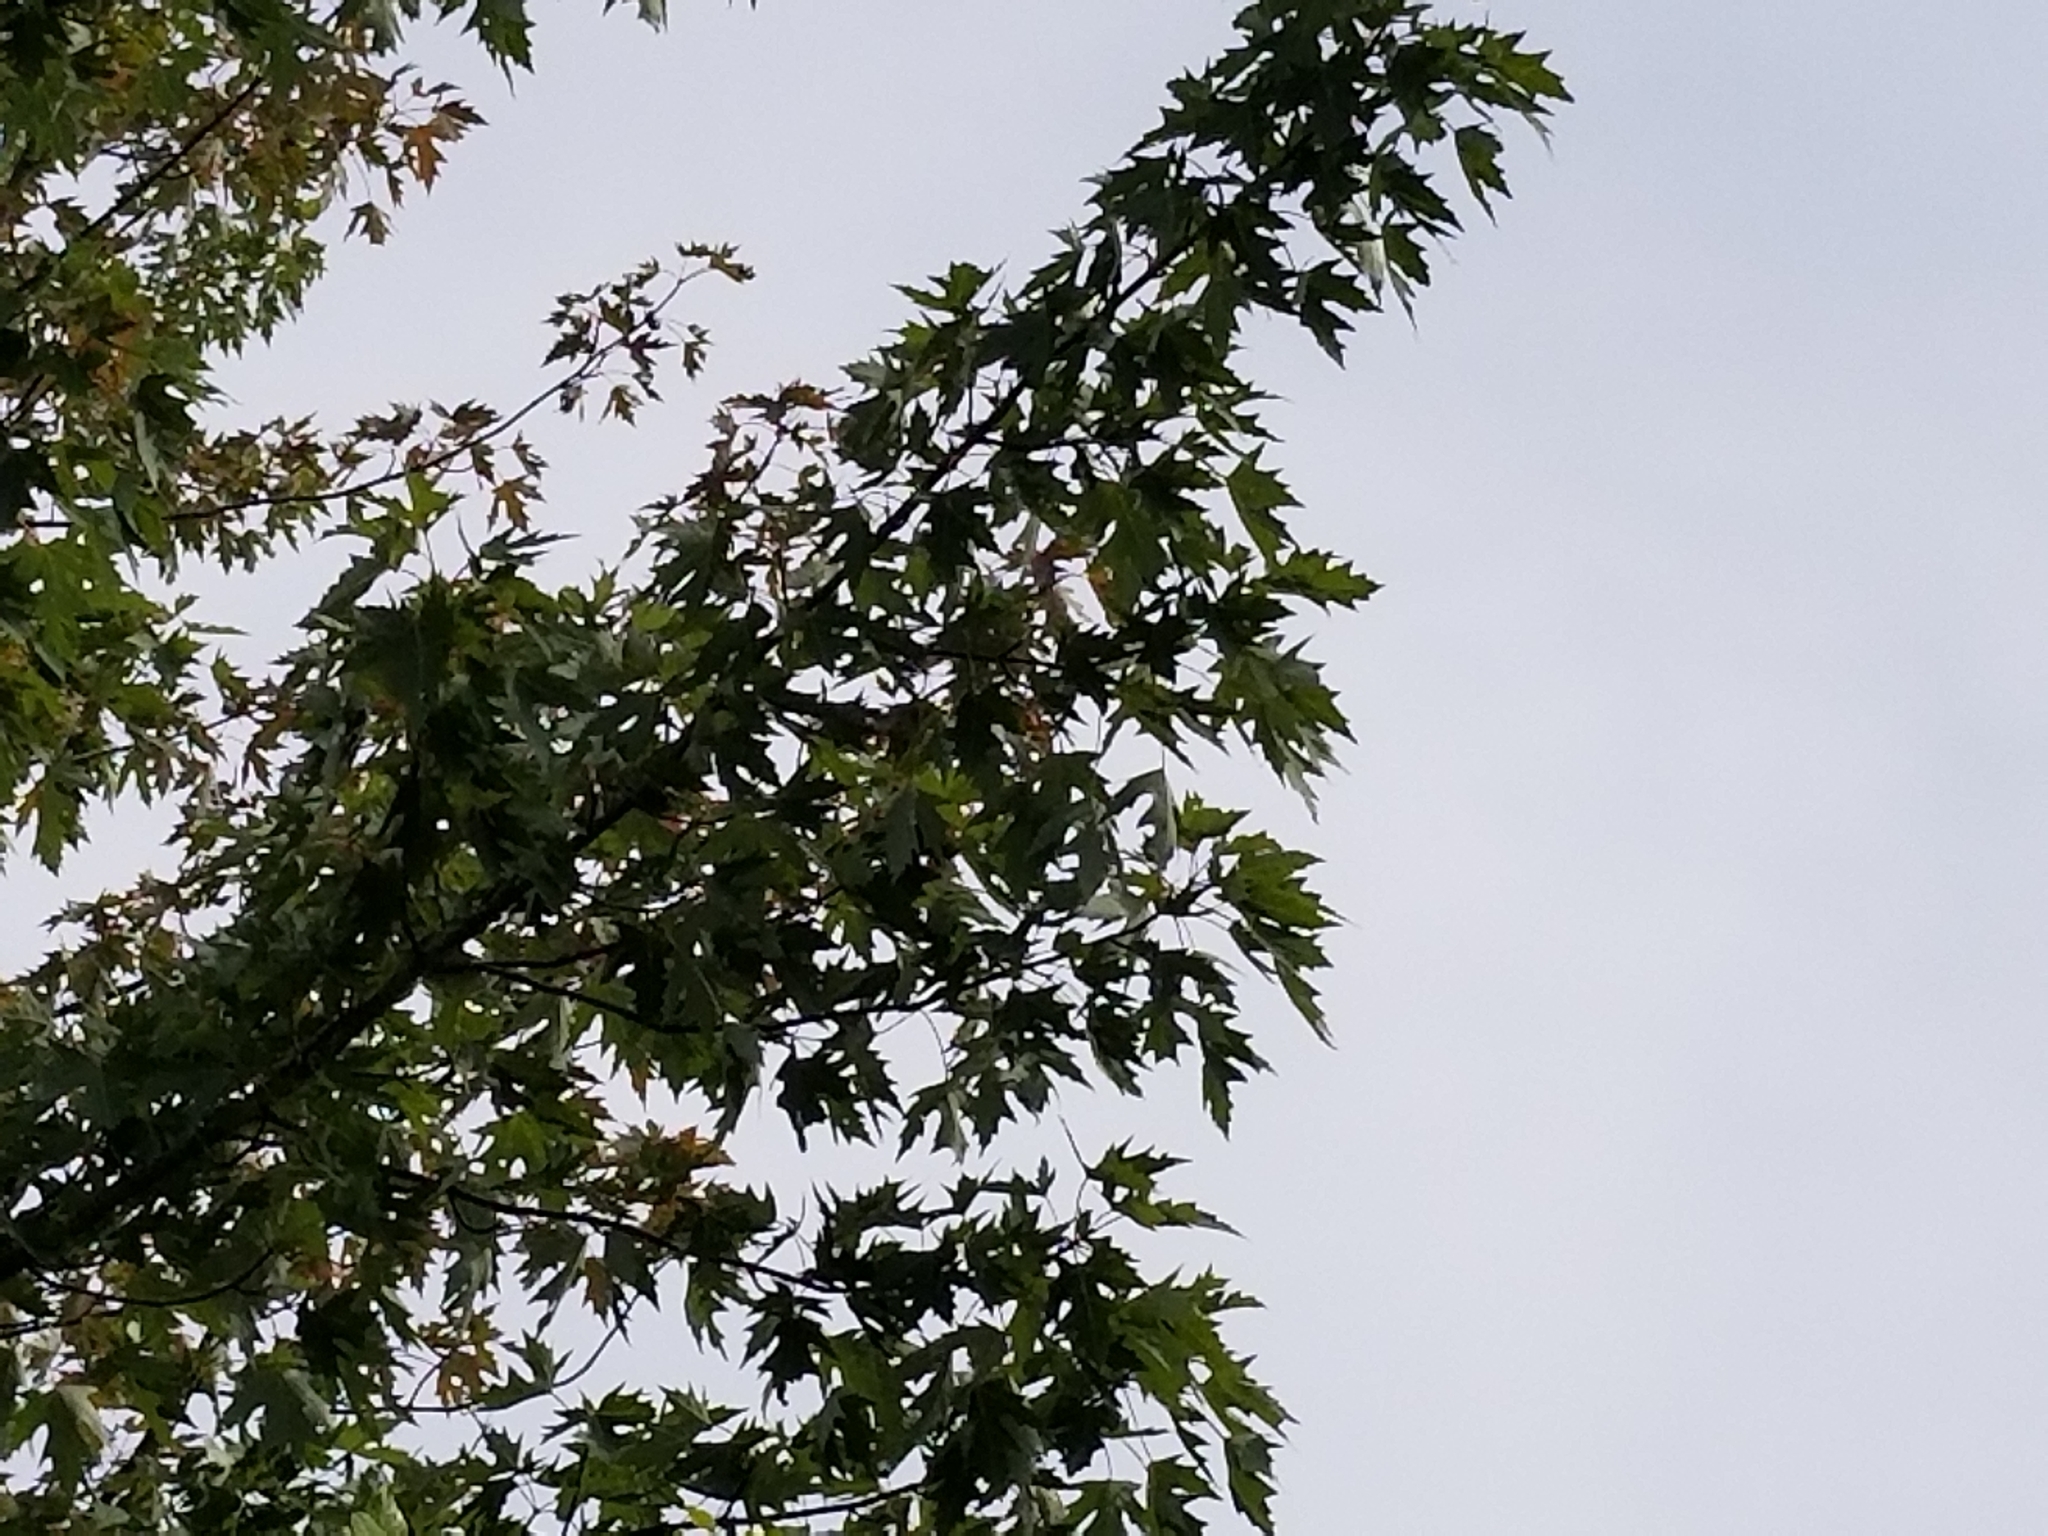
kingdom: Plantae
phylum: Tracheophyta
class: Magnoliopsida
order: Sapindales
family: Sapindaceae
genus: Acer
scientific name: Acer saccharinum
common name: Silver maple
